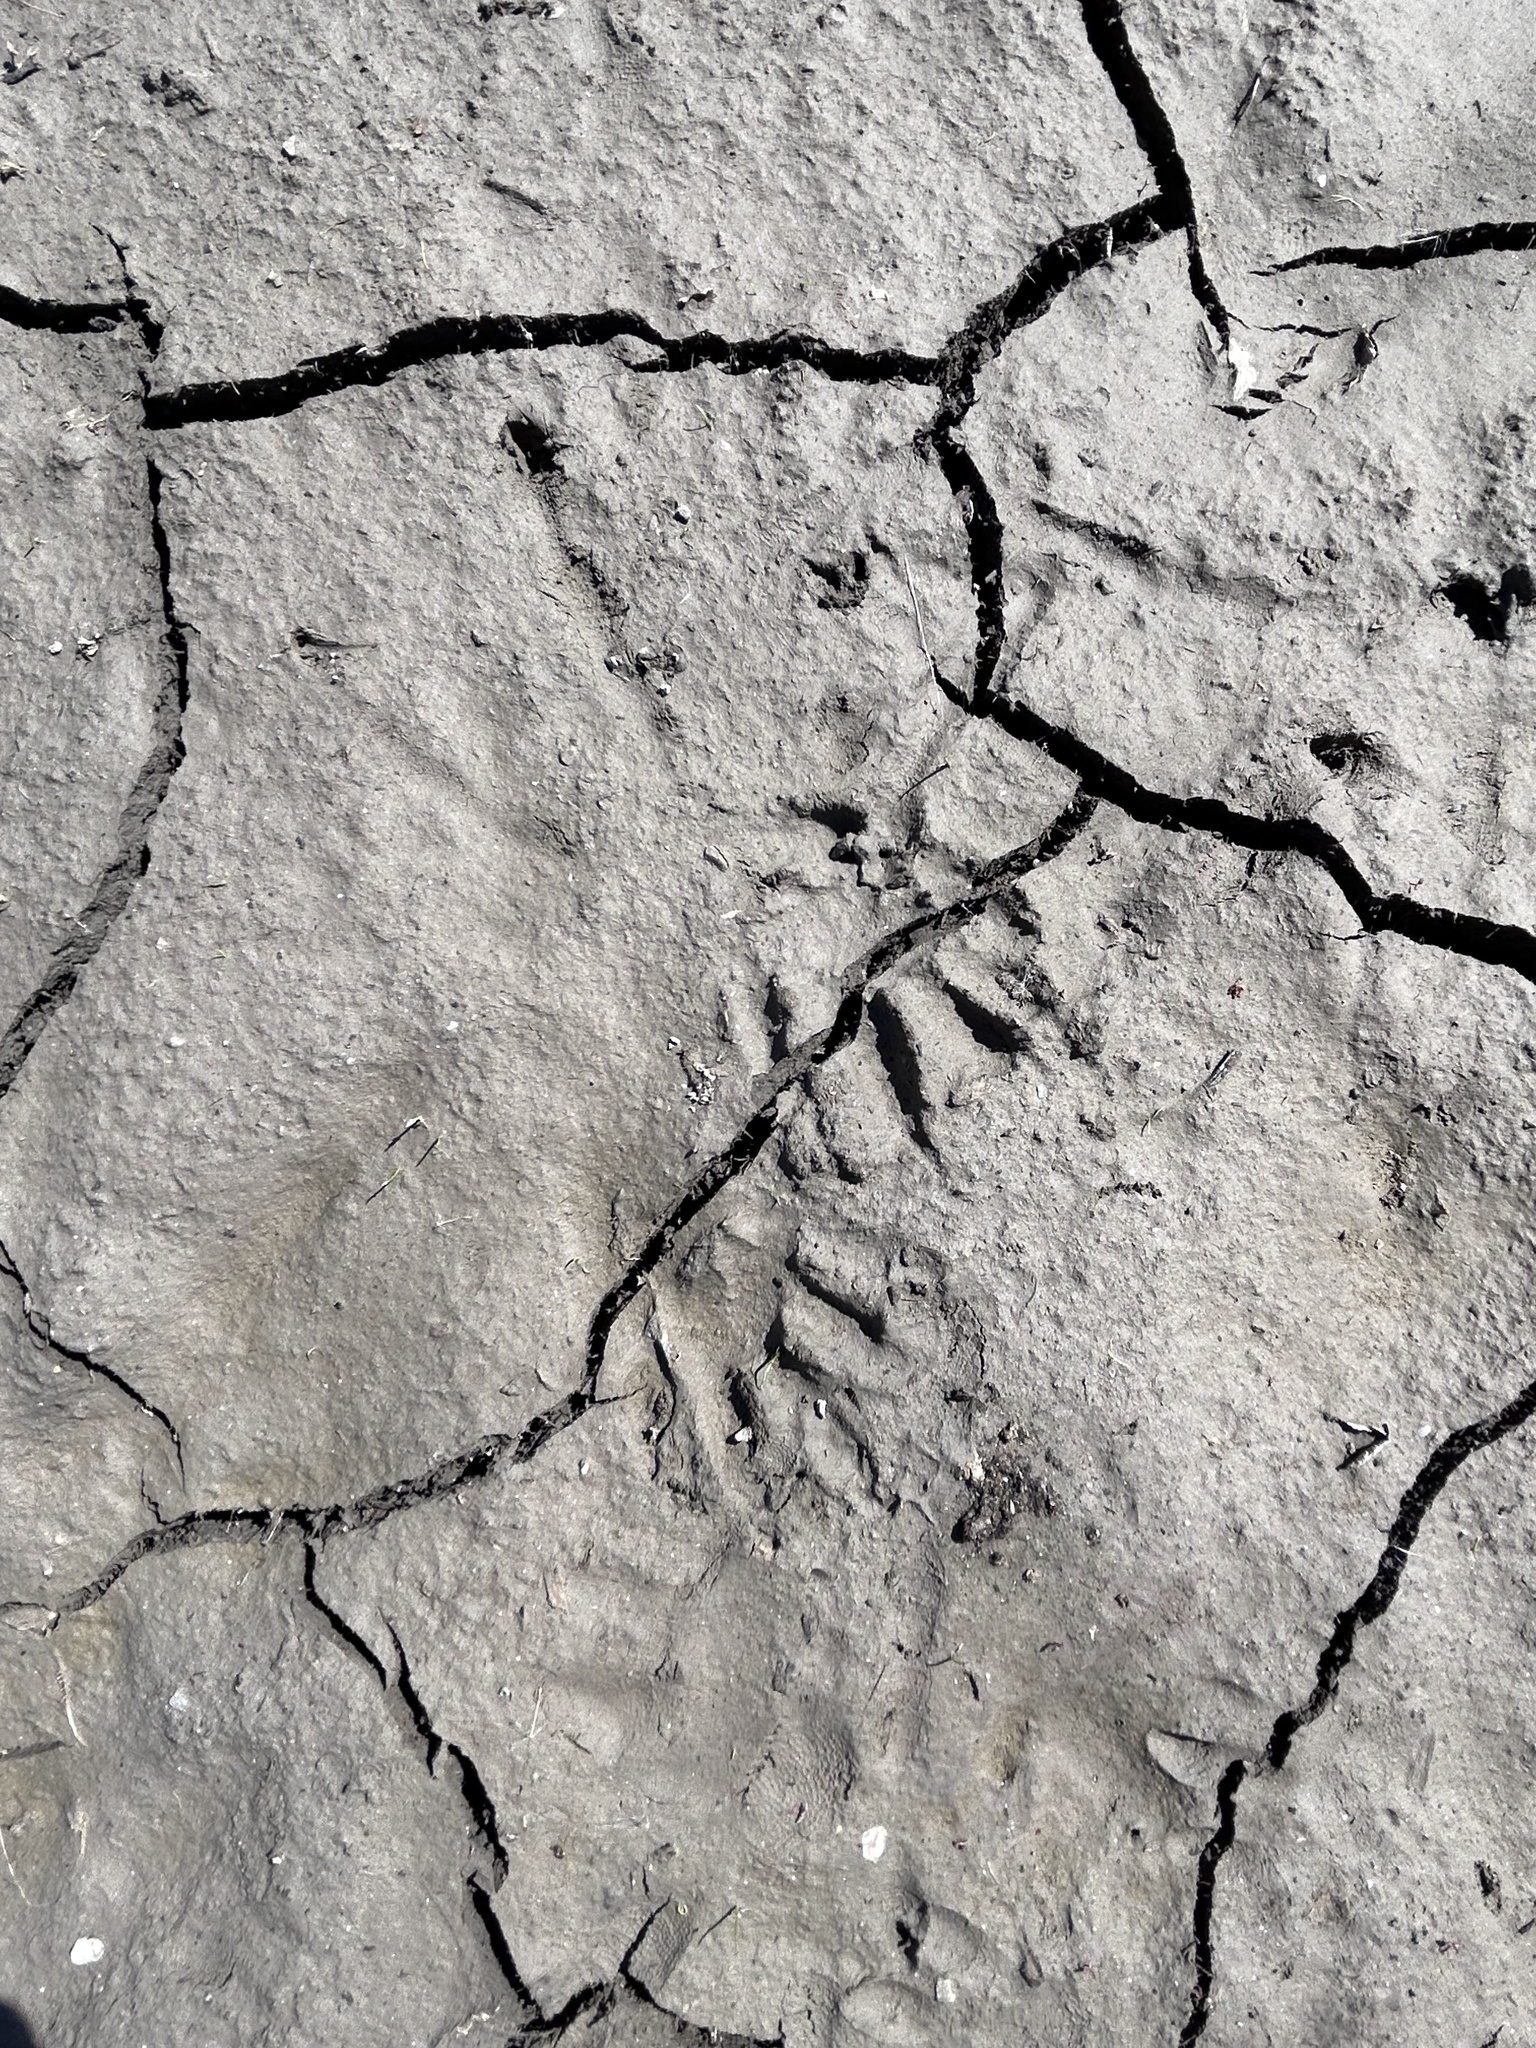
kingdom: Animalia
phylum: Chordata
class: Mammalia
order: Carnivora
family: Procyonidae
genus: Procyon
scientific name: Procyon lotor
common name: Raccoon
